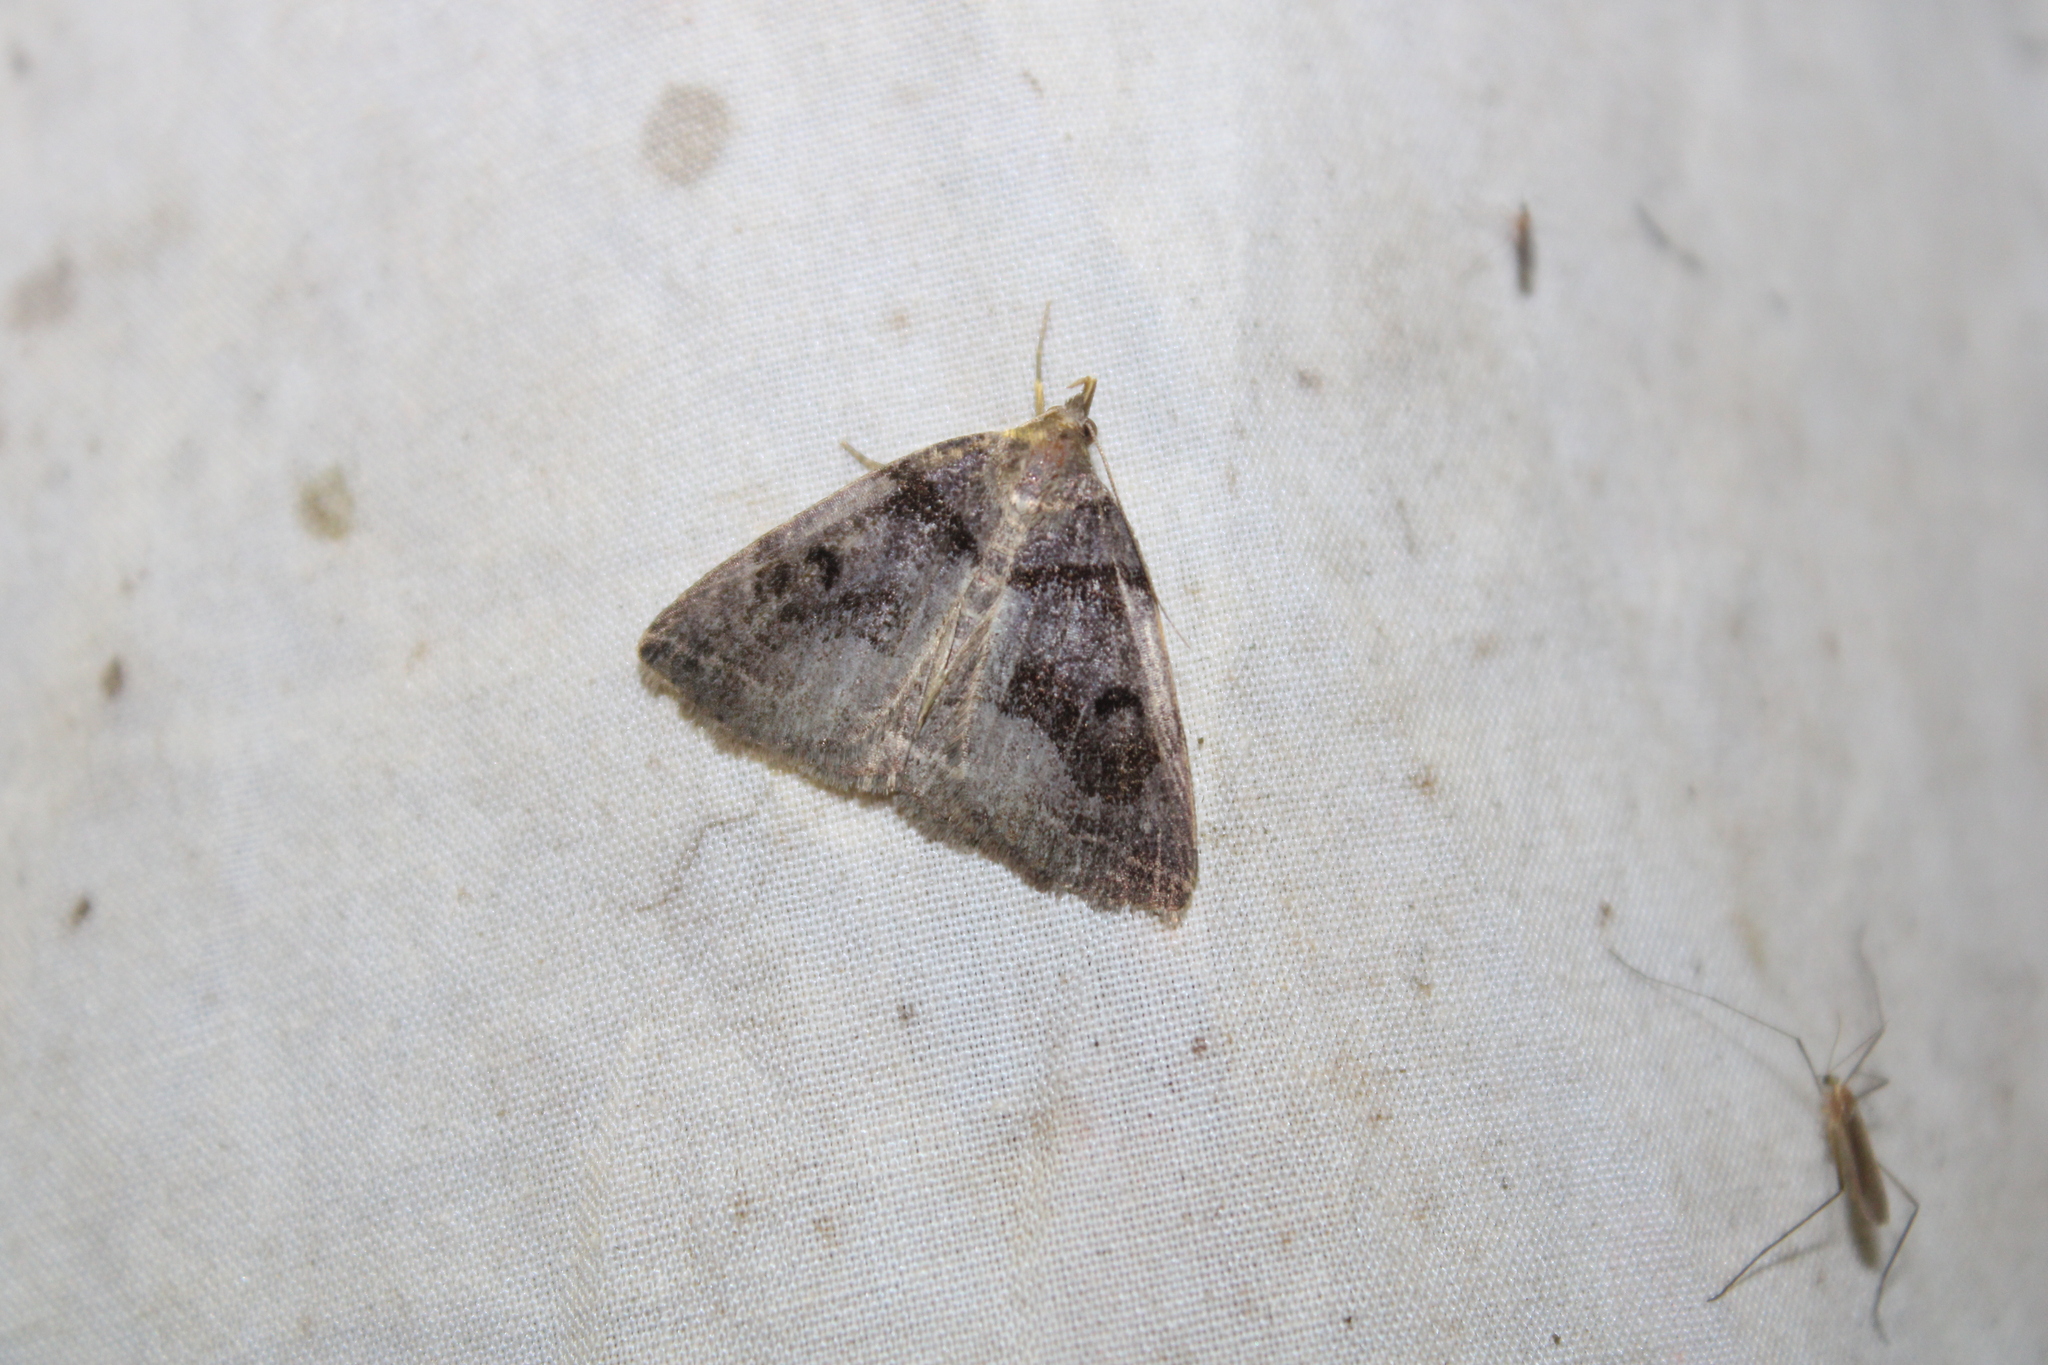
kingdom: Animalia
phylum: Arthropoda
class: Insecta
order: Lepidoptera
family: Erebidae
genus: Zanclognatha
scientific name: Zanclognatha laevigata
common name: Variable fan-foot
